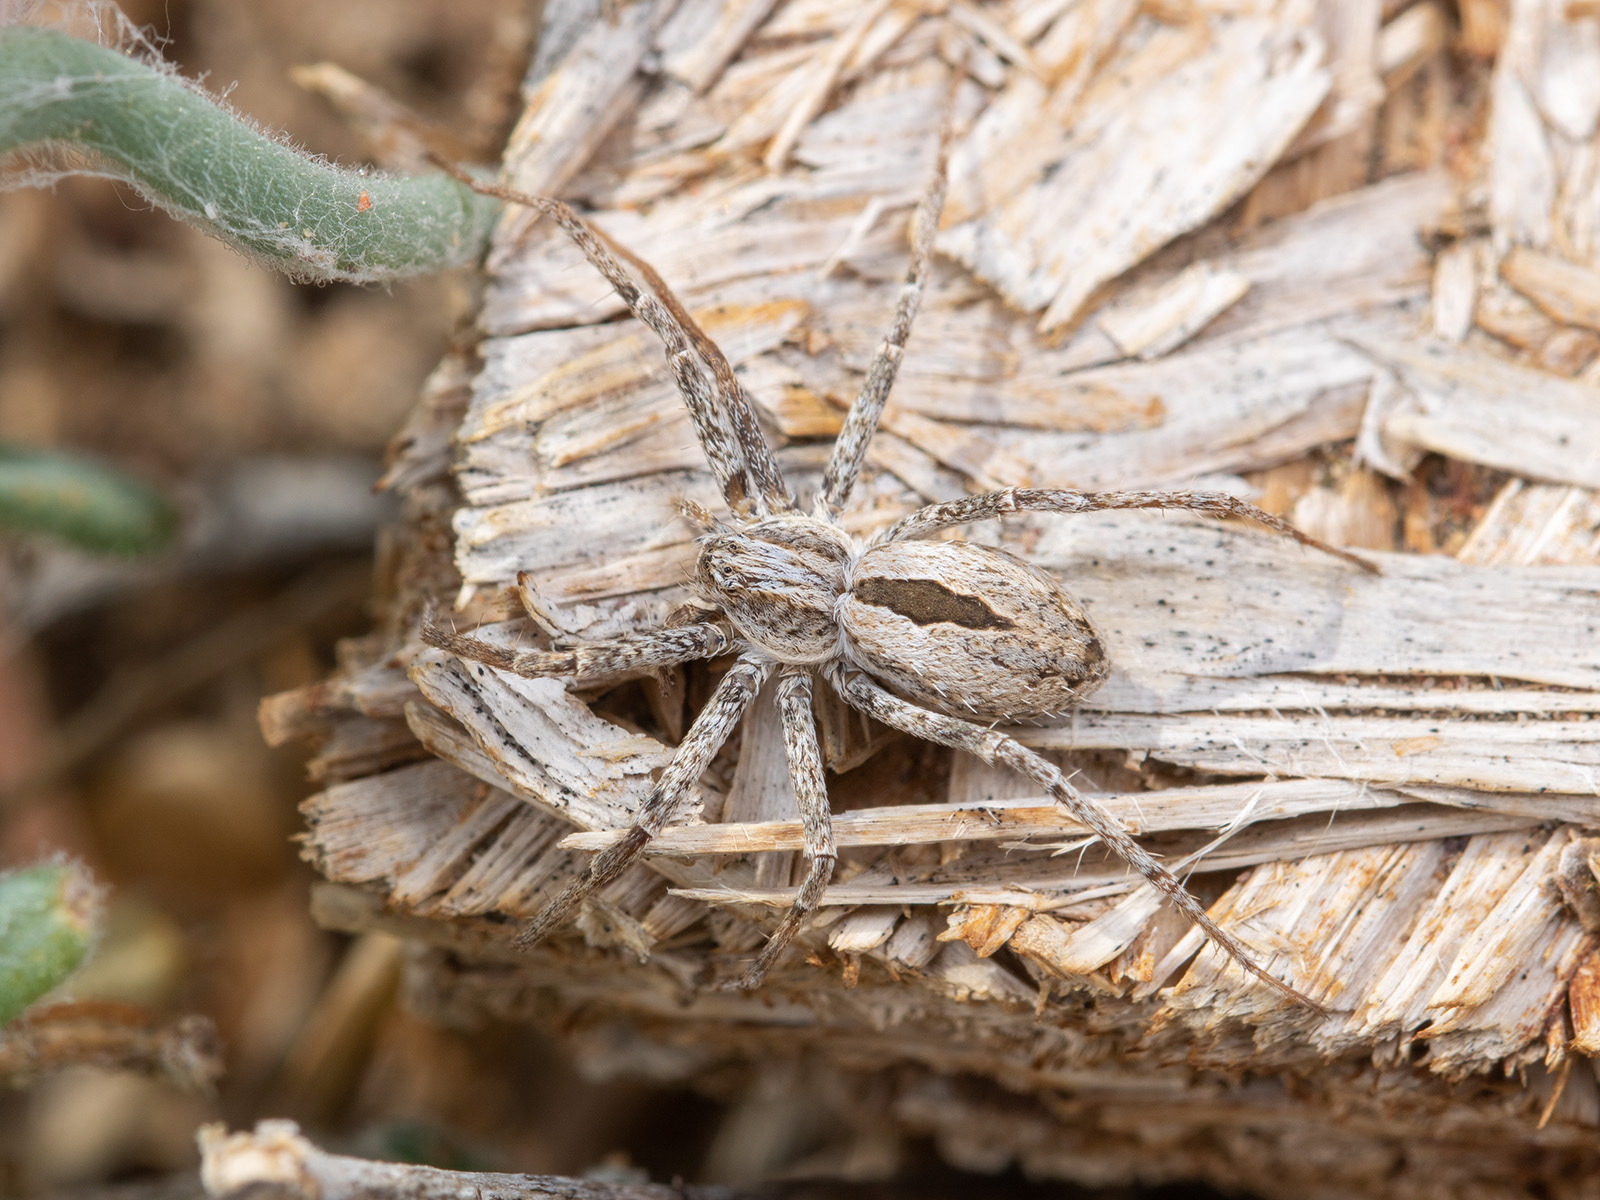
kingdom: Animalia
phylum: Arthropoda
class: Arachnida
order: Araneae
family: Philodromidae
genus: Thanatus
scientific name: Thanatus fabricii
